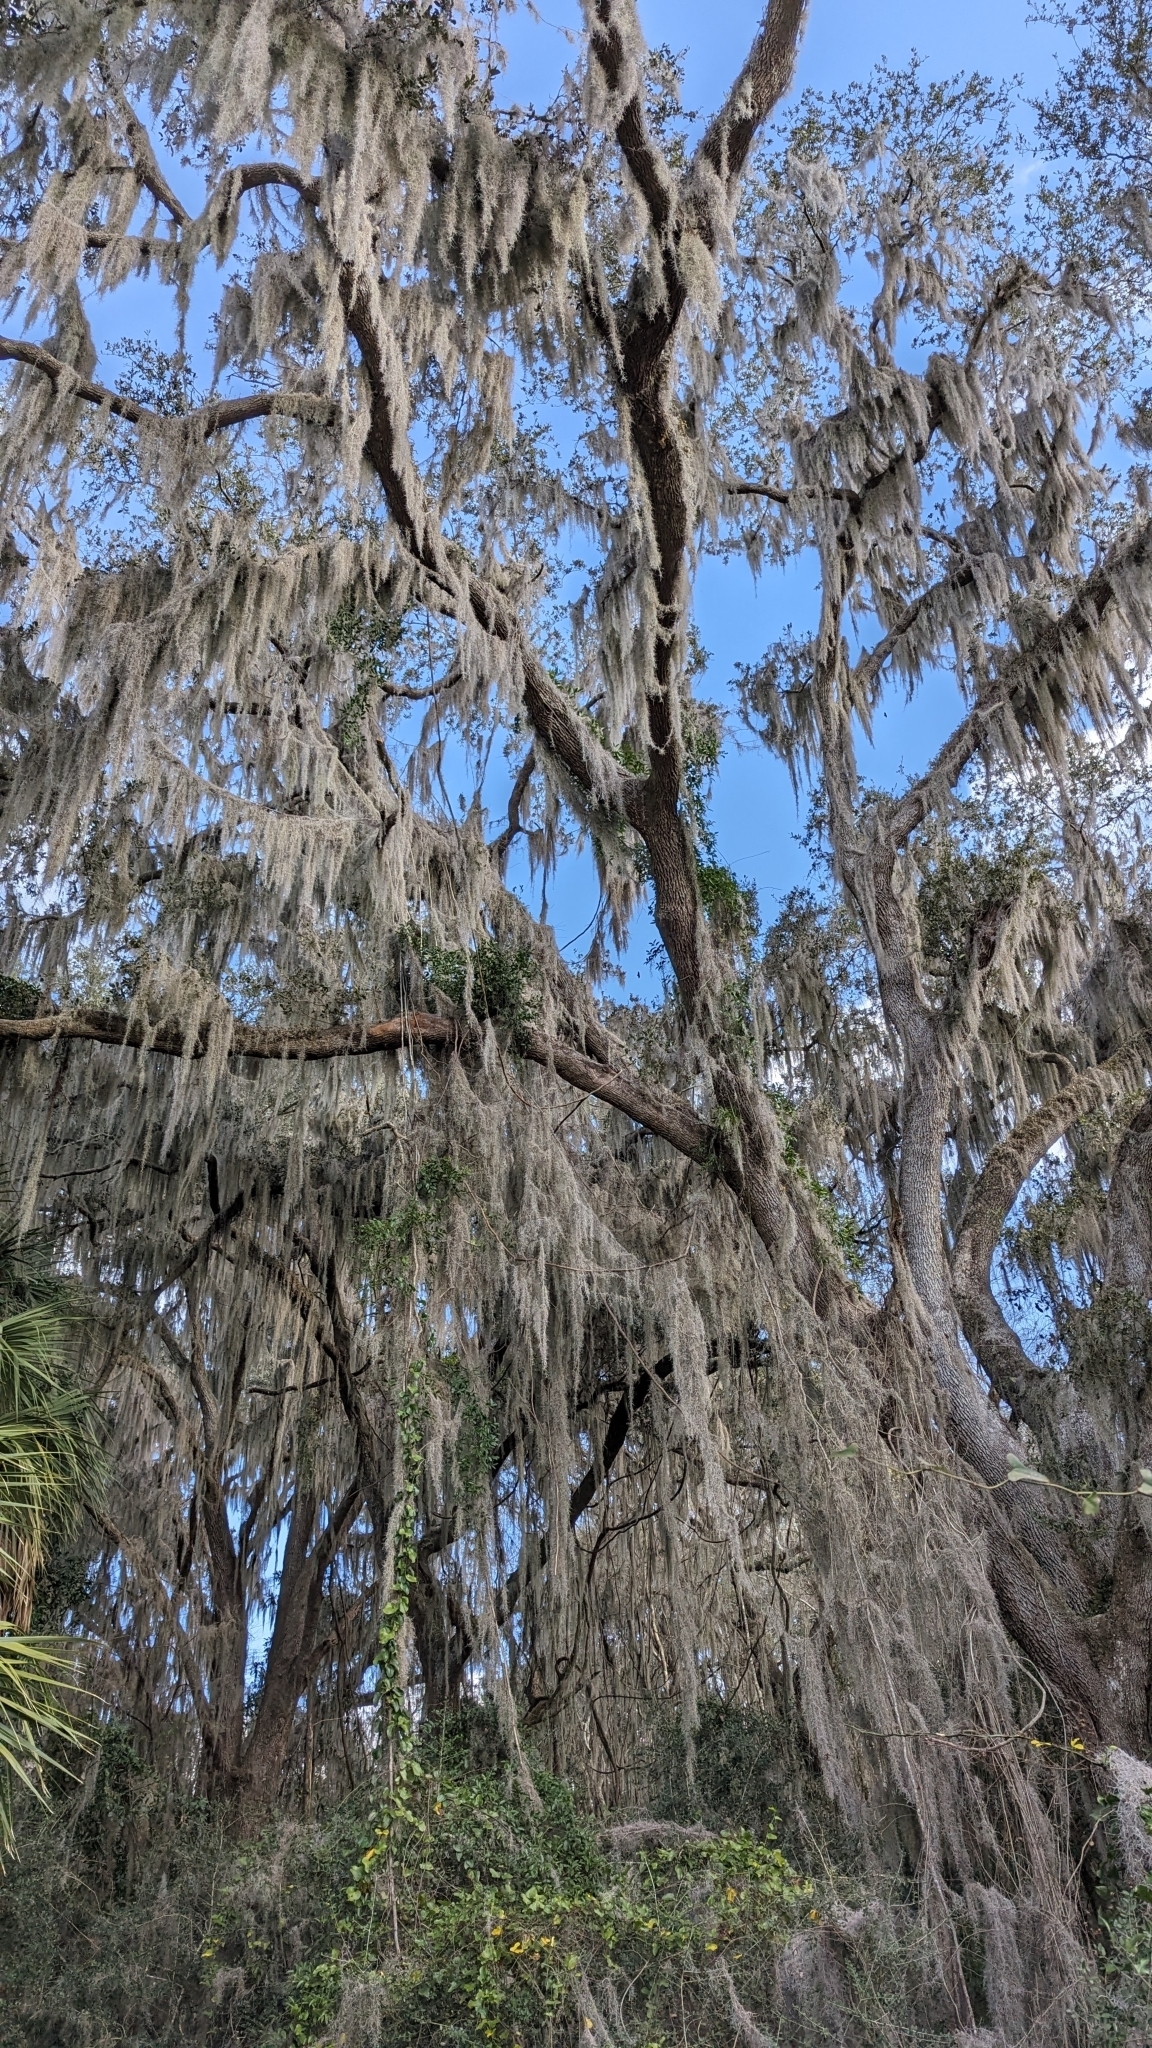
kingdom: Plantae
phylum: Tracheophyta
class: Magnoliopsida
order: Fagales
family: Fagaceae
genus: Quercus
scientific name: Quercus virginiana
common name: Southern live oak
